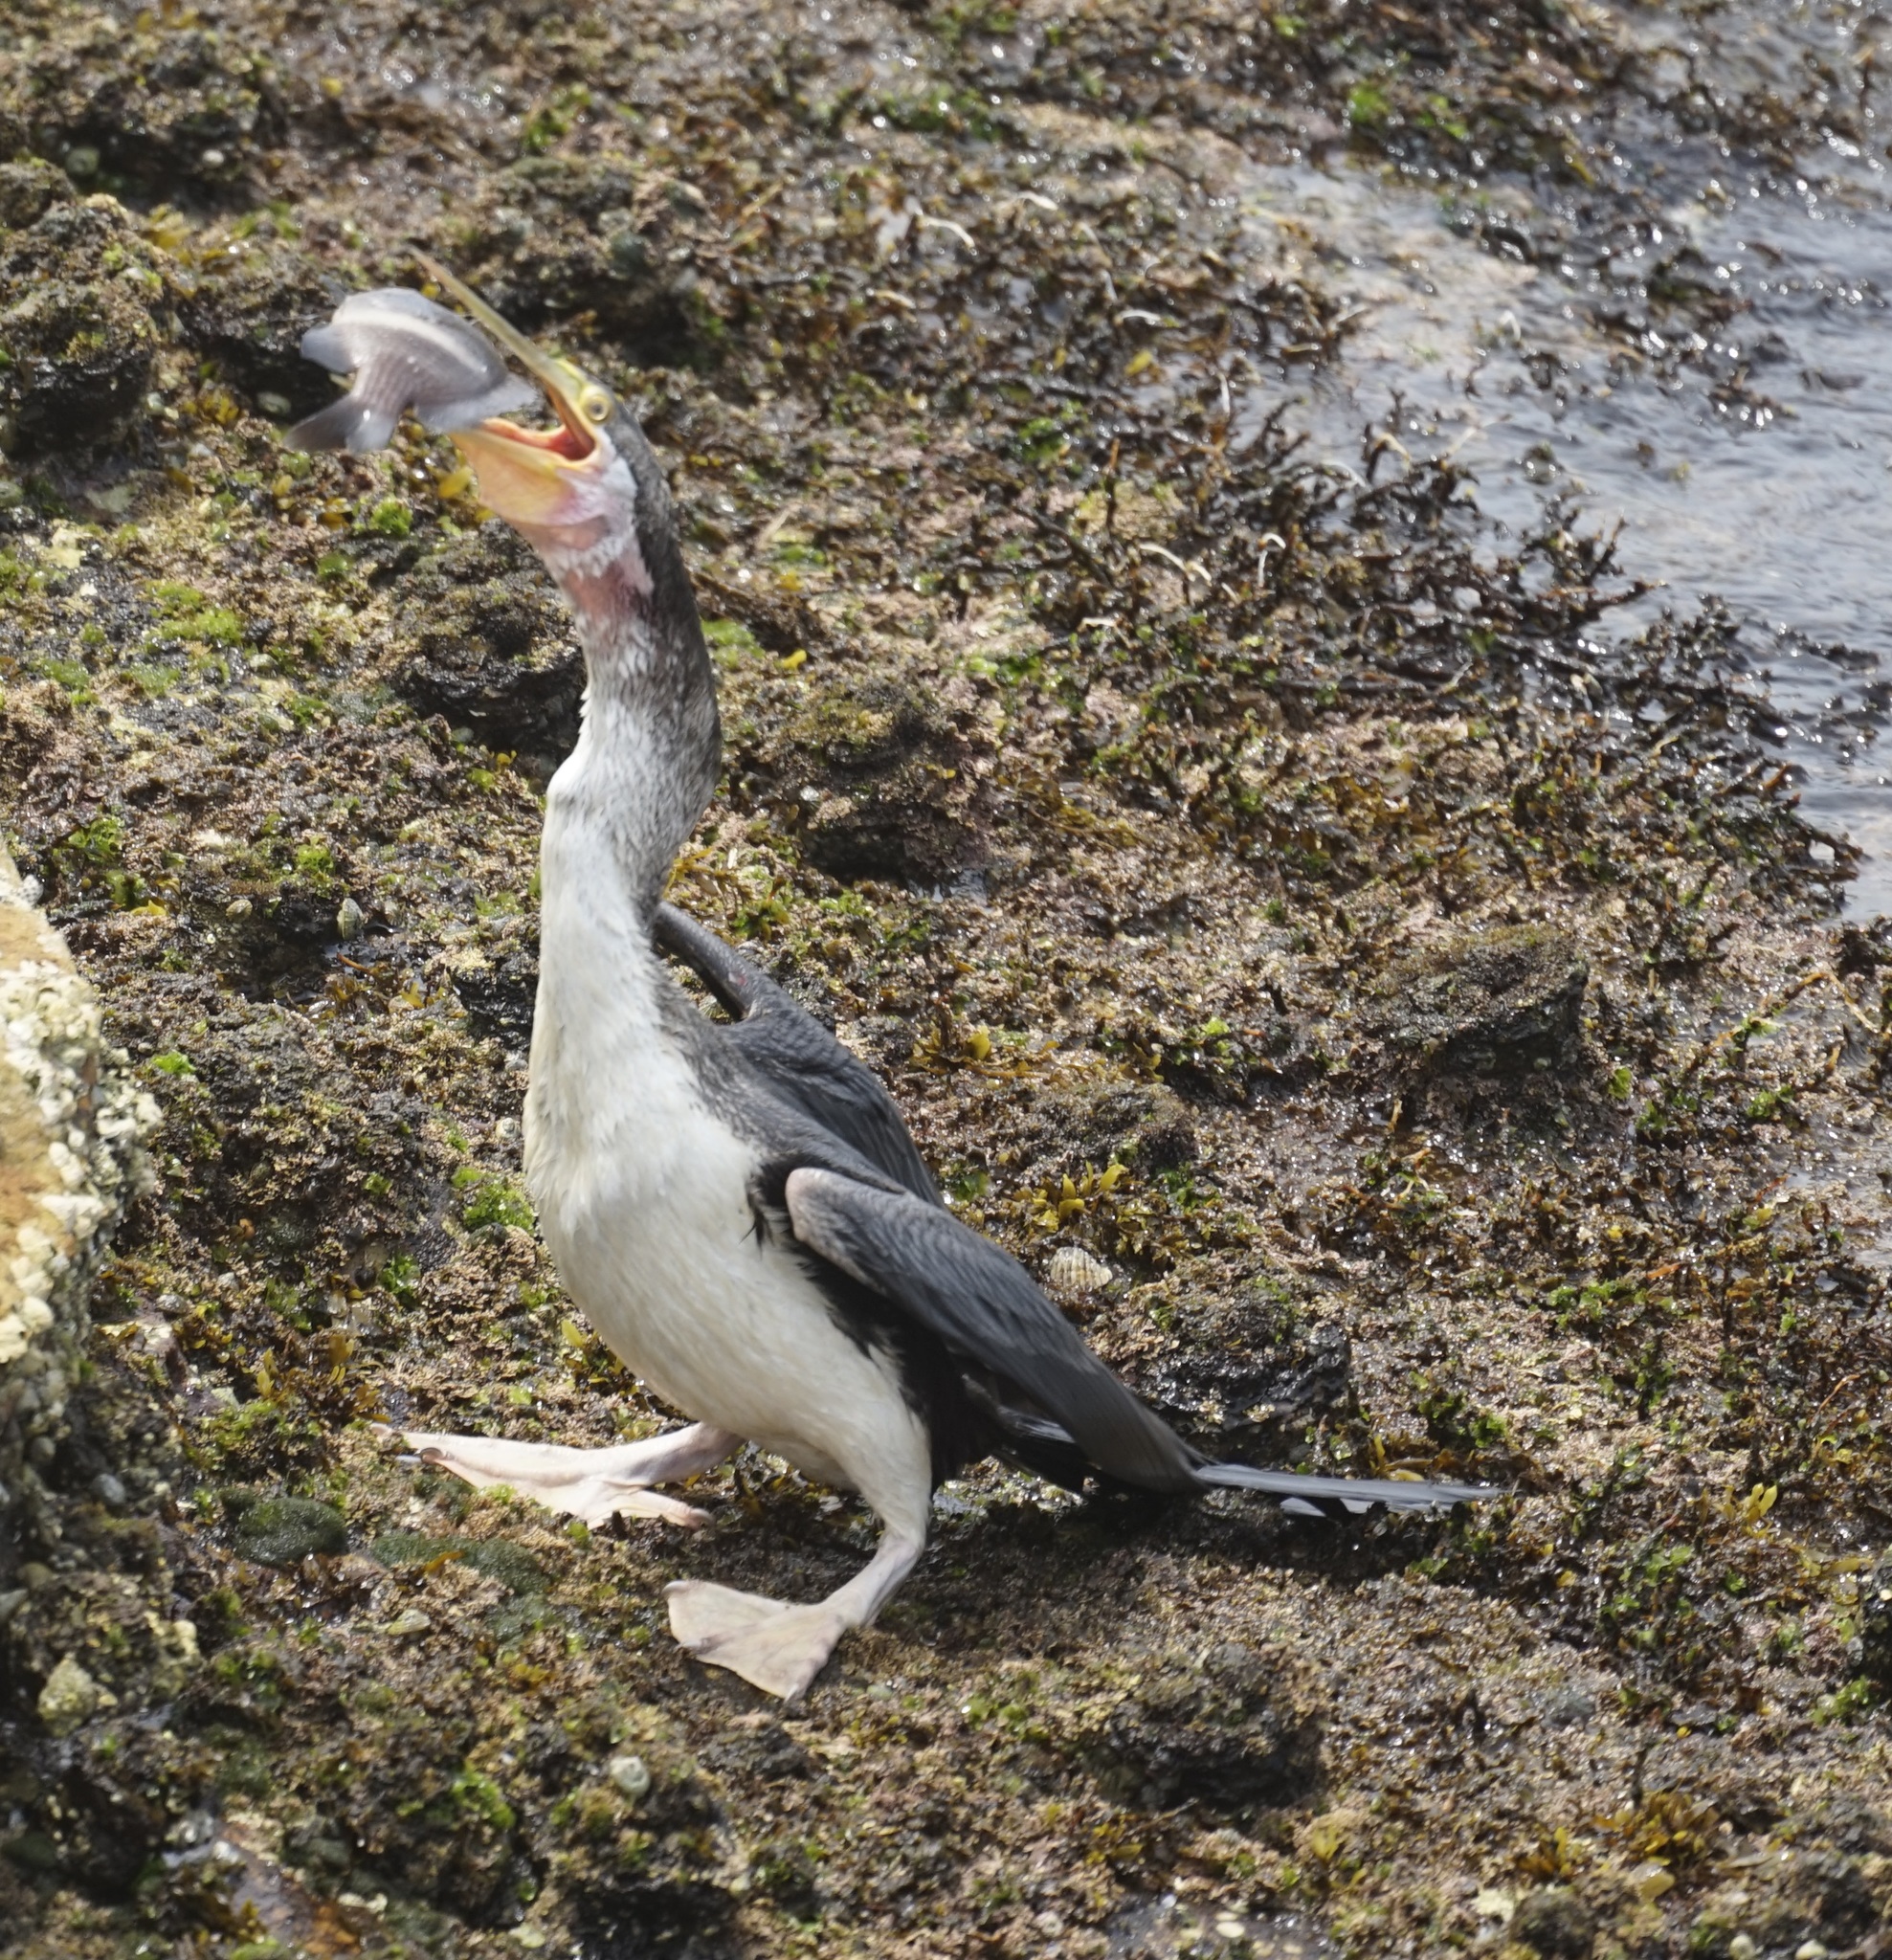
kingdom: Animalia
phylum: Chordata
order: Perciformes
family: Pomacentridae
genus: Parma
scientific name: Parma unifasciata
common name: Girdled parma
